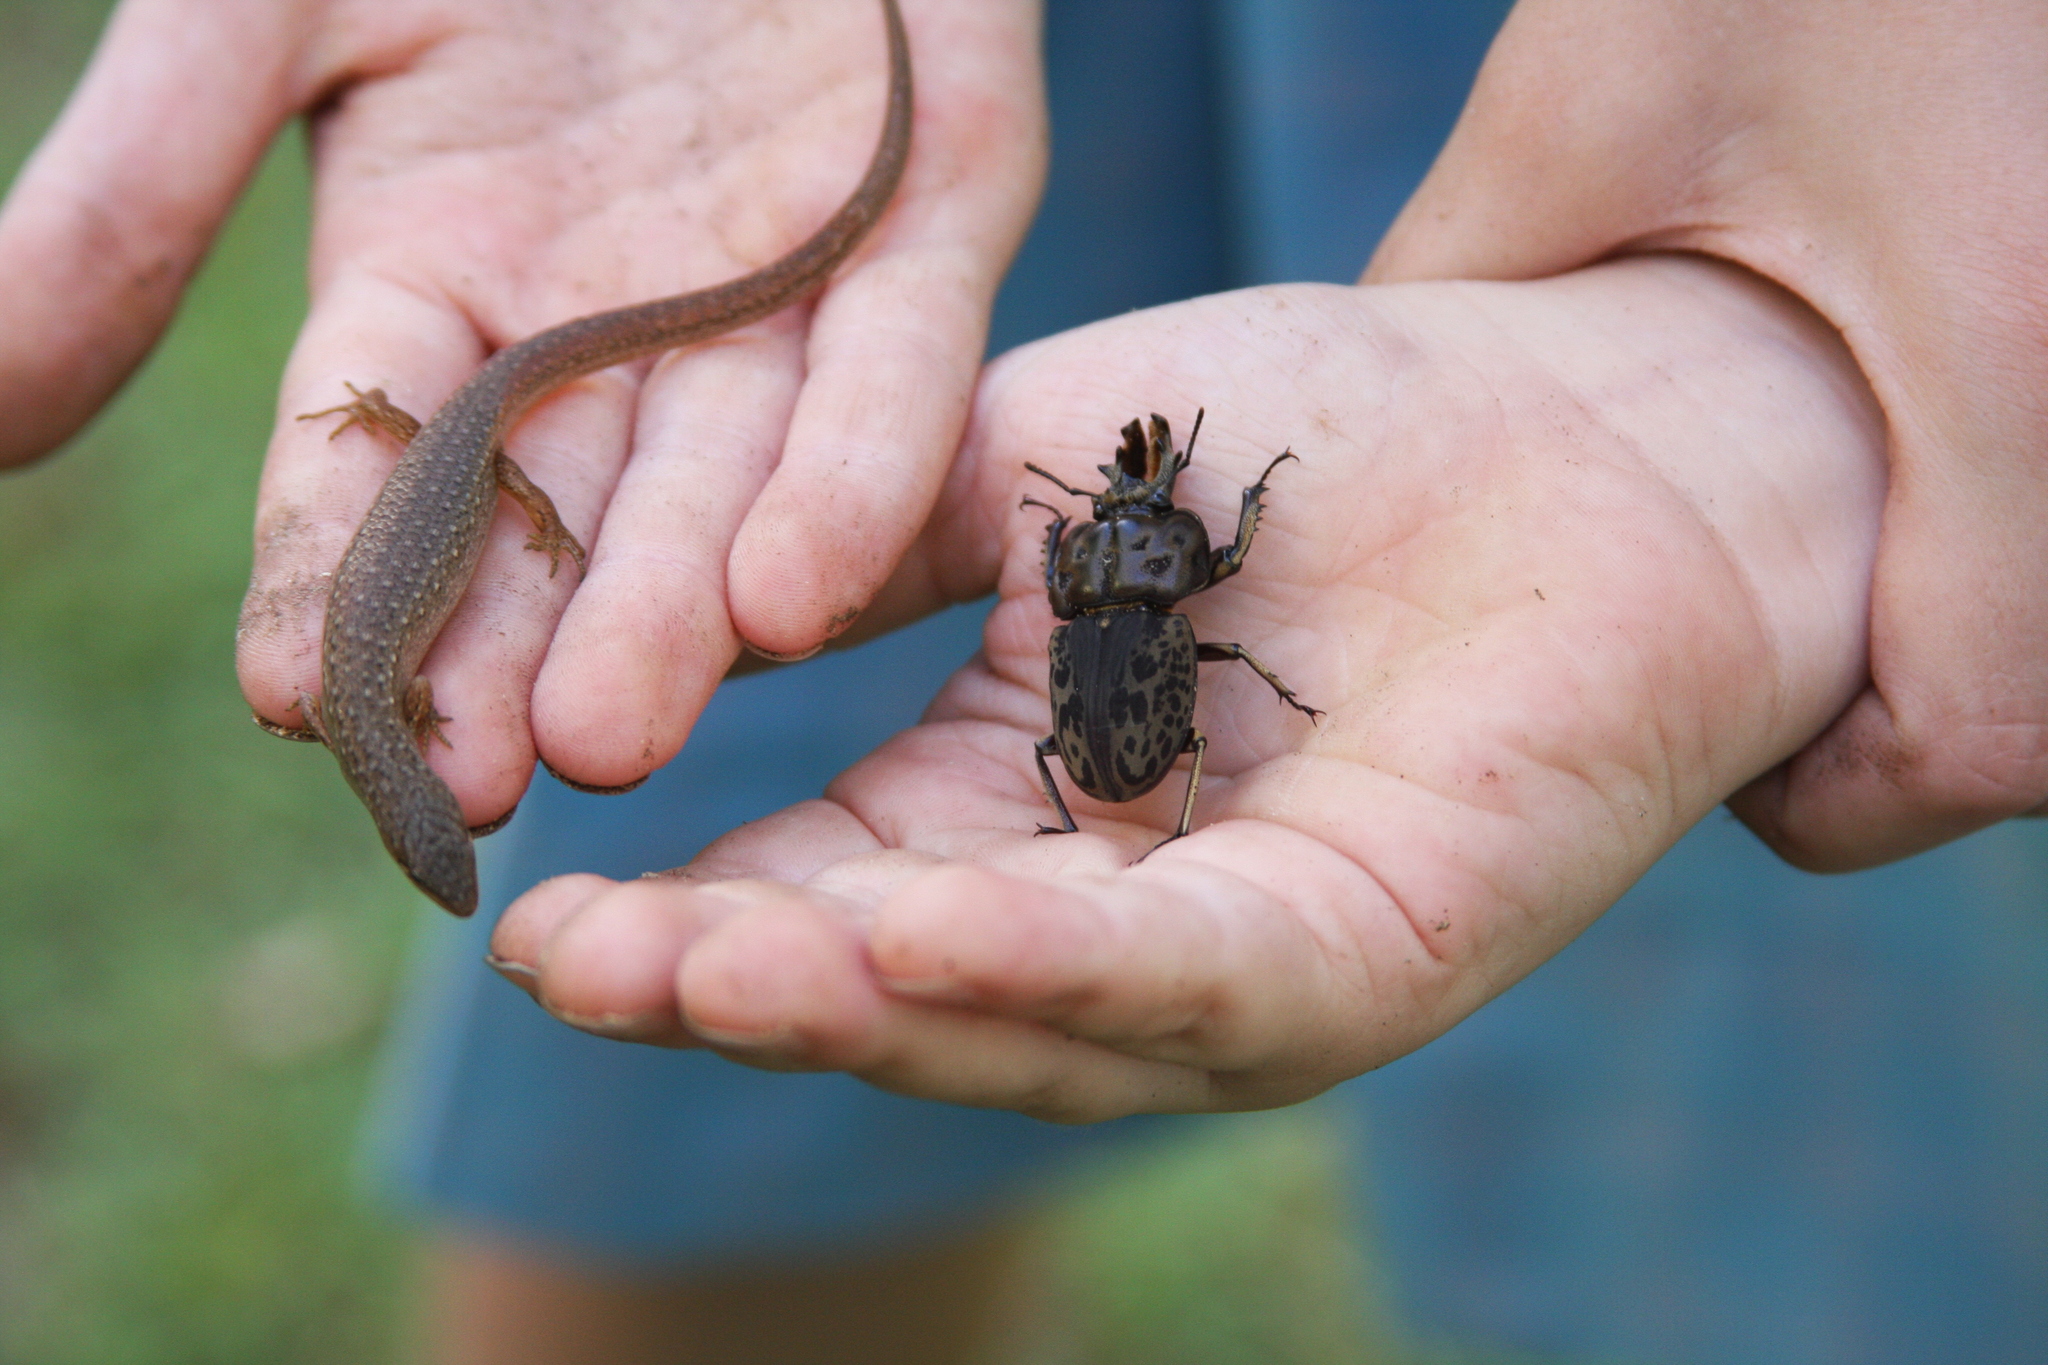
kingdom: Animalia
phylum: Chordata
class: Squamata
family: Scincidae
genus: Saproscincus
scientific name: Saproscincus mustelinus
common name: Southern weasel skink
